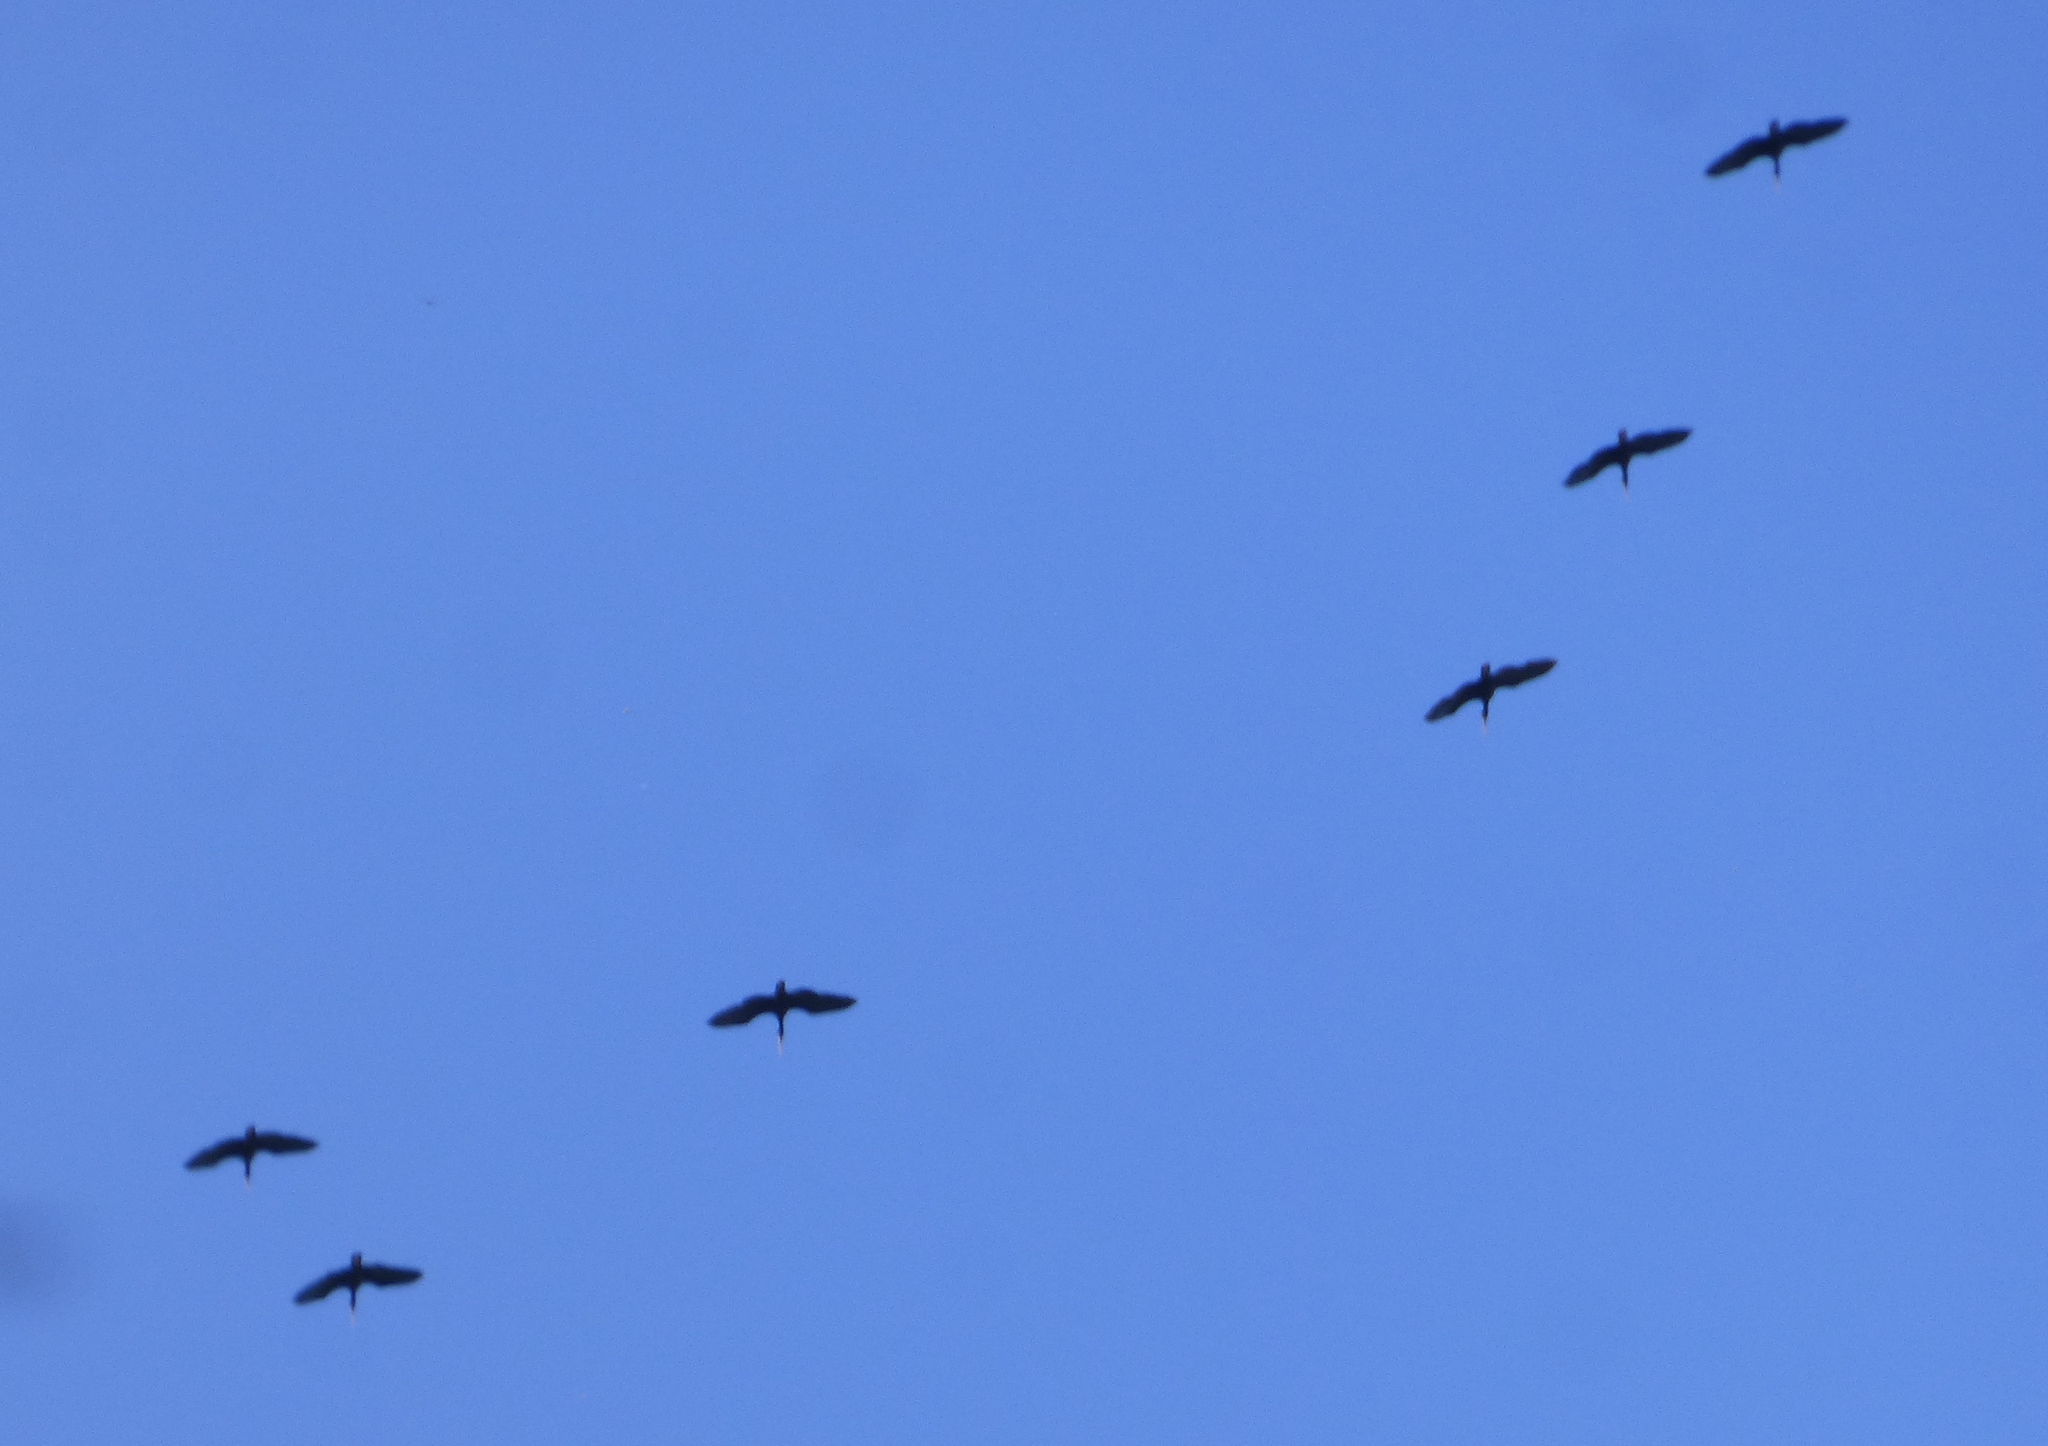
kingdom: Animalia
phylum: Chordata
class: Aves
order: Pelecaniformes
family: Threskiornithidae
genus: Phimosus
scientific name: Phimosus infuscatus
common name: Bare-faced ibis
